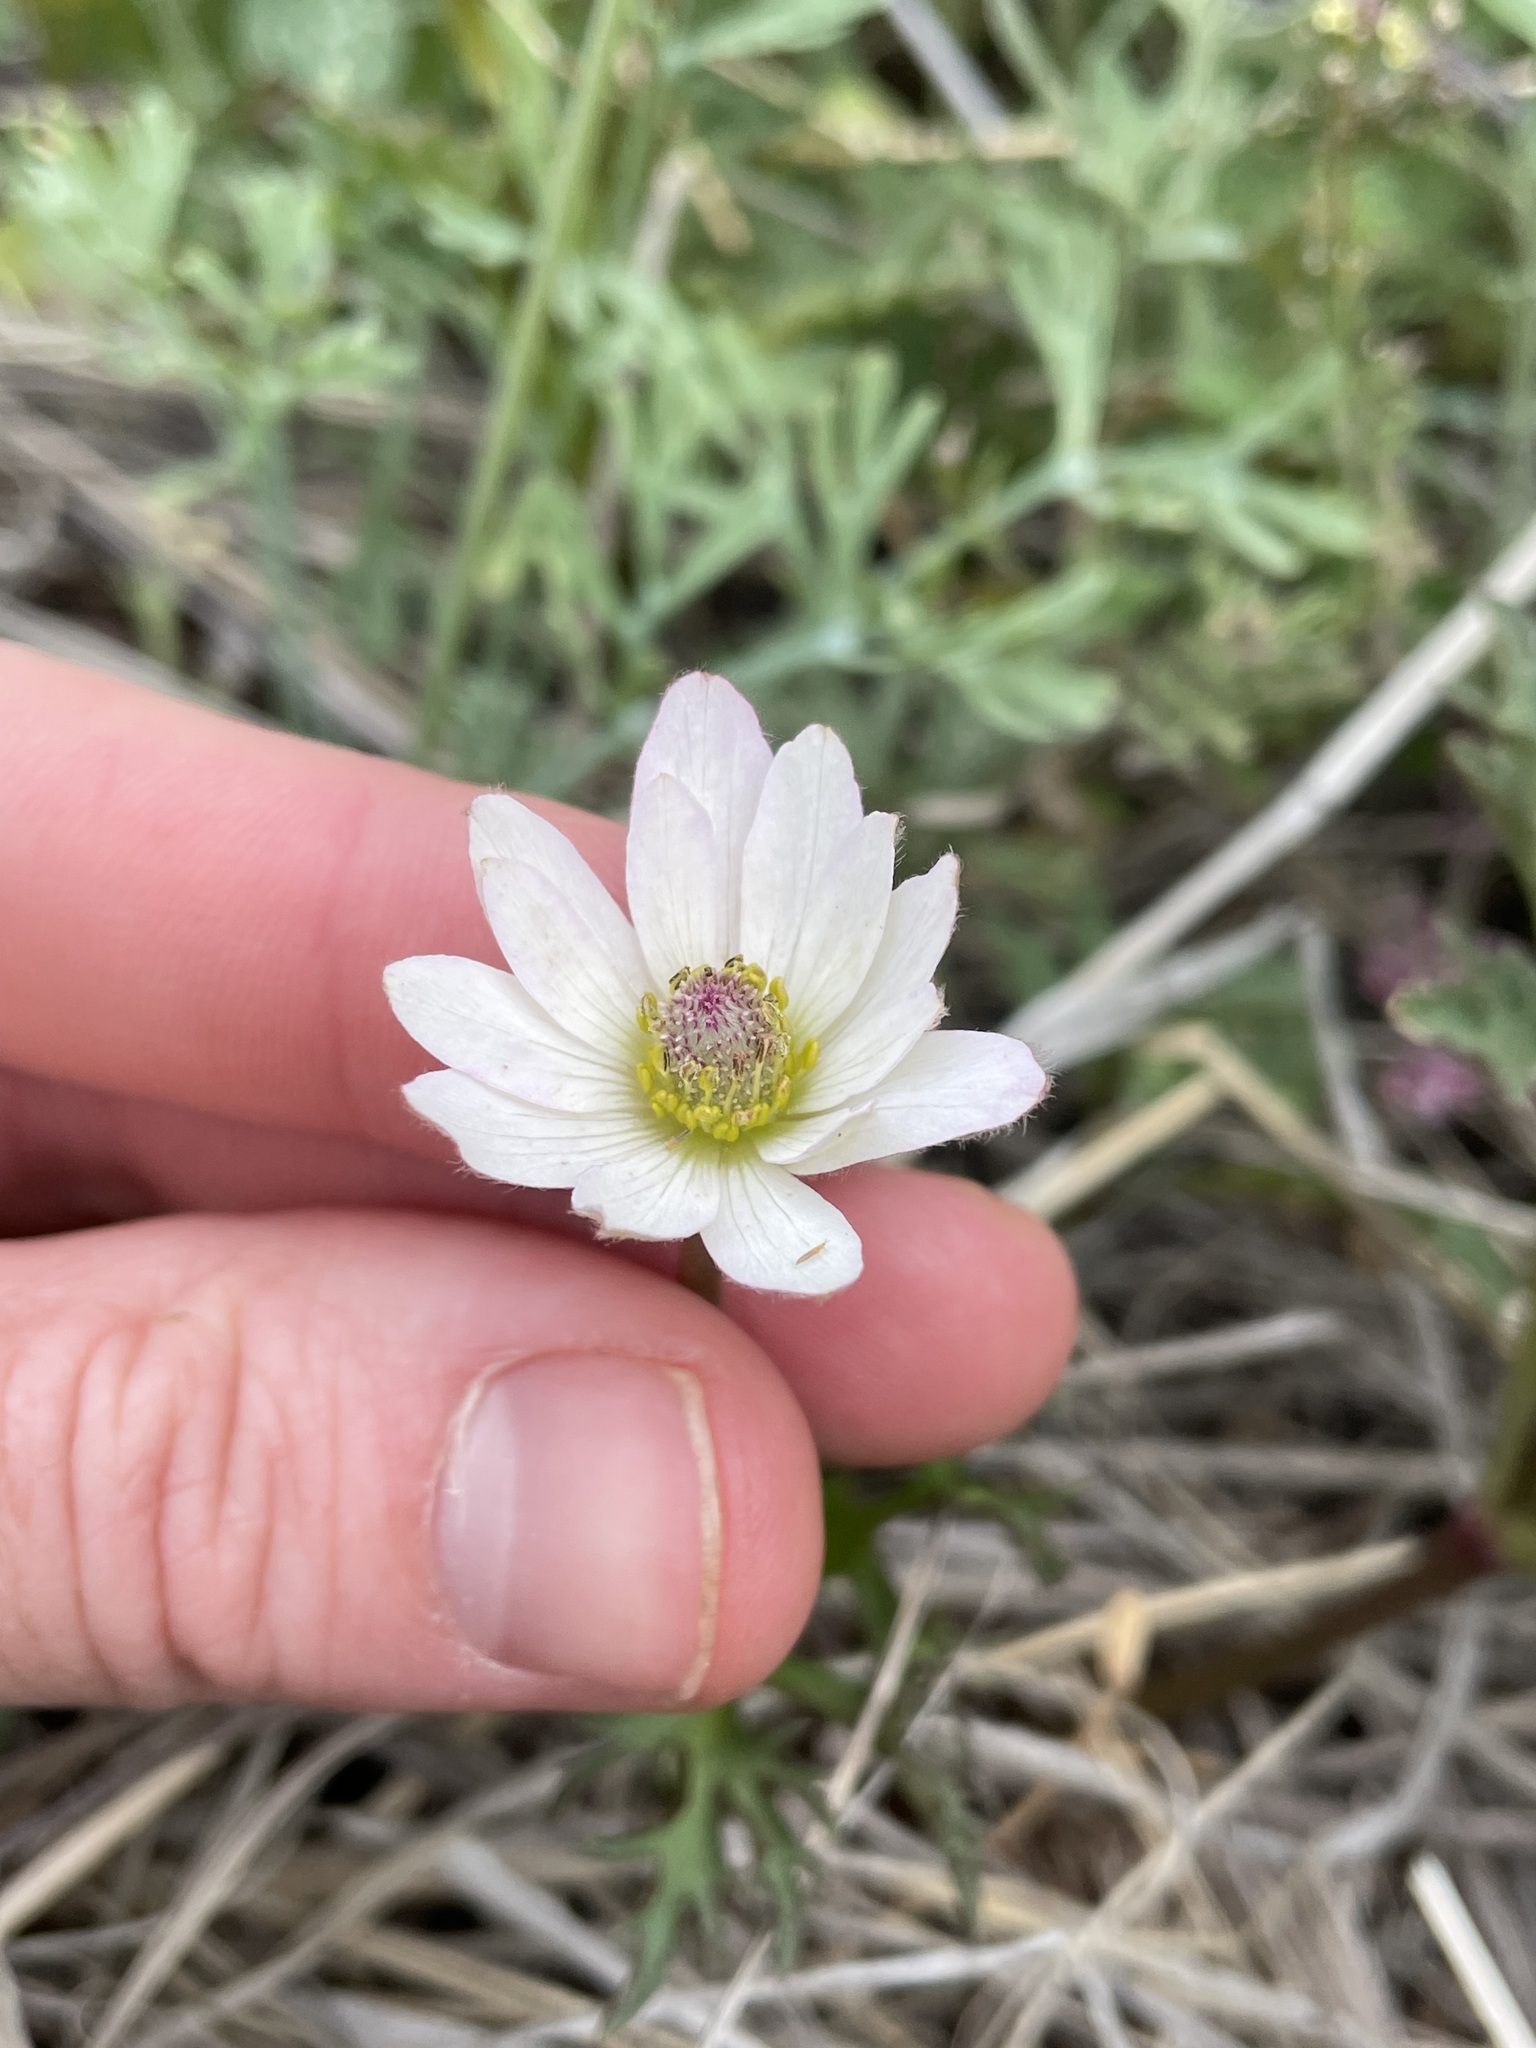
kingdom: Plantae
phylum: Tracheophyta
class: Magnoliopsida
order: Ranunculales
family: Ranunculaceae
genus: Anemone
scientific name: Anemone tuberosa
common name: Desert anemone
